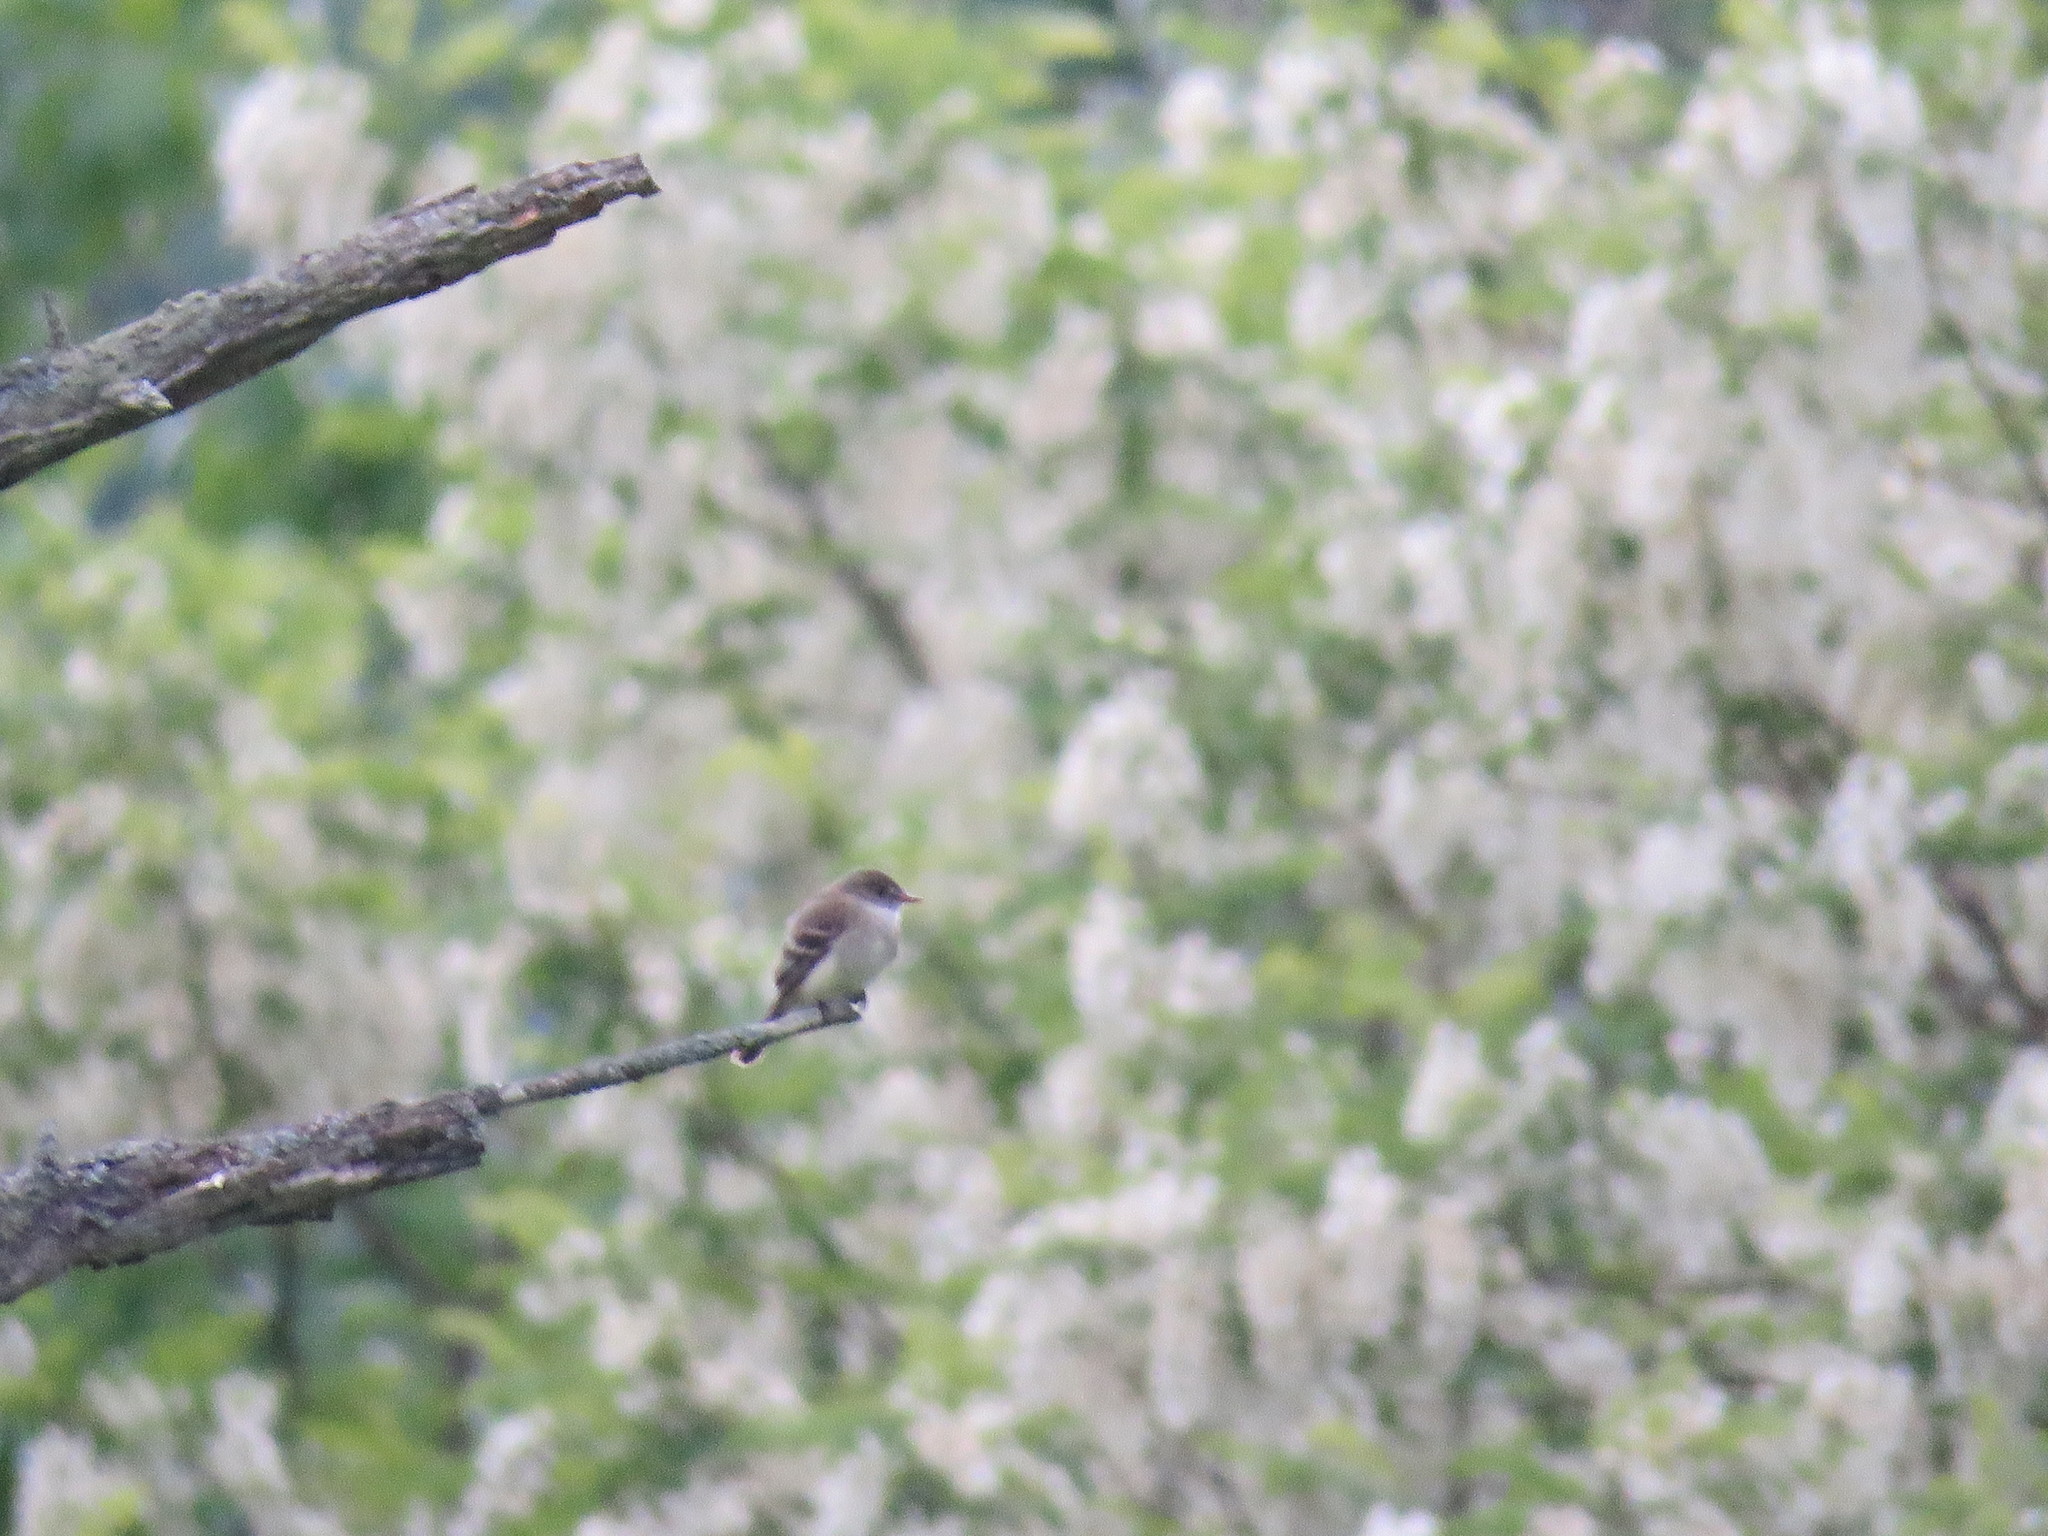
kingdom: Animalia
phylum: Chordata
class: Aves
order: Passeriformes
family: Tyrannidae
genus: Empidonax
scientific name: Empidonax traillii
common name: Willow flycatcher
